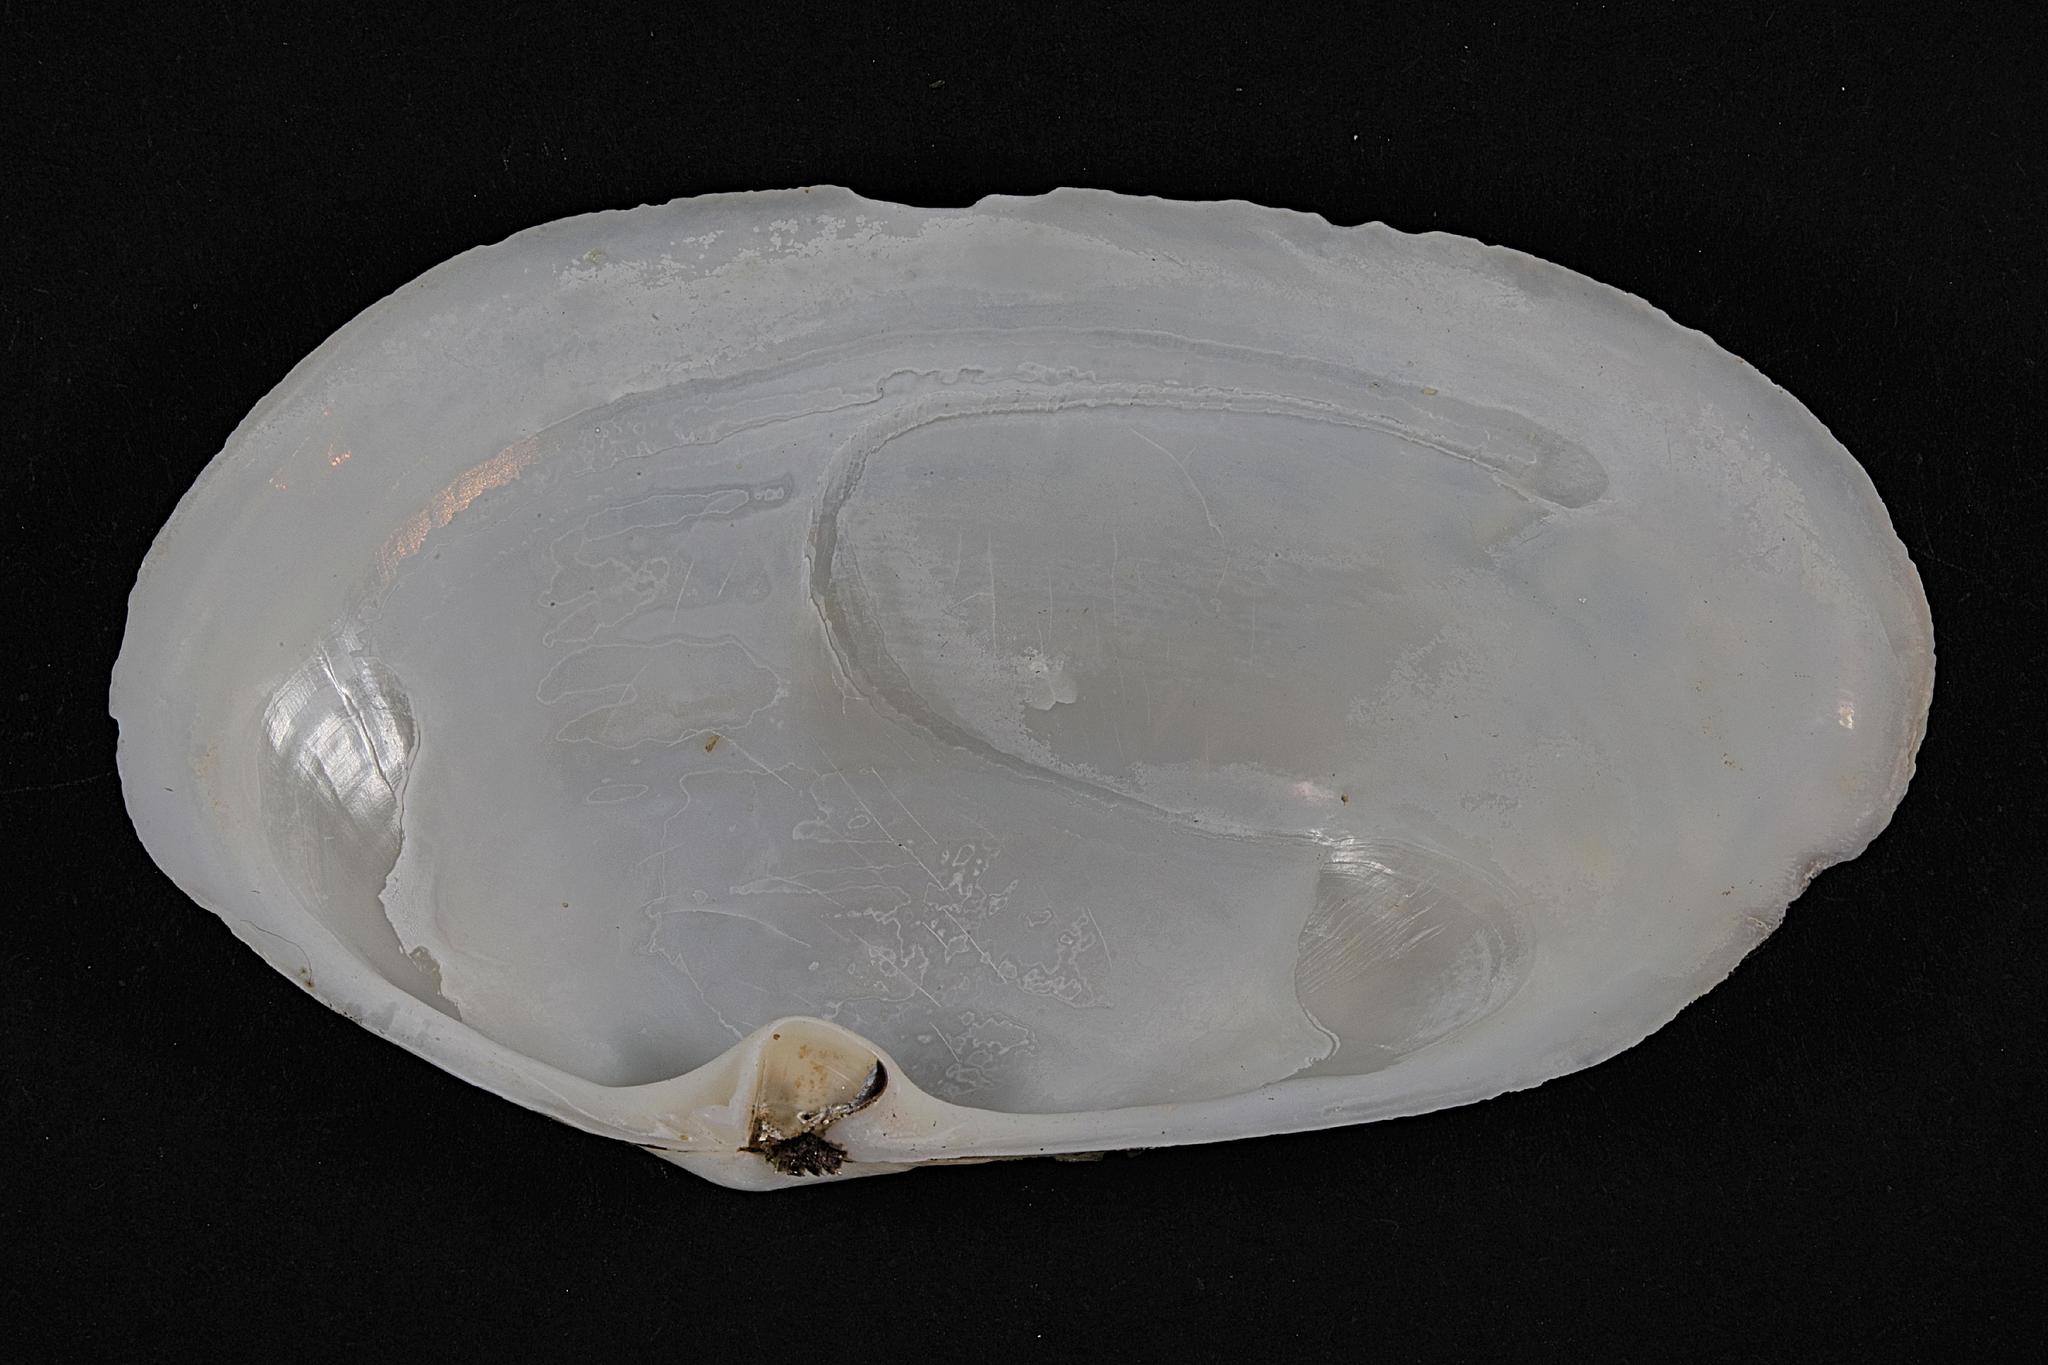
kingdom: Animalia
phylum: Mollusca
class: Bivalvia
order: Venerida
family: Mactridae
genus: Lutraria
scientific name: Lutraria lutraria
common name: Common otter shell
